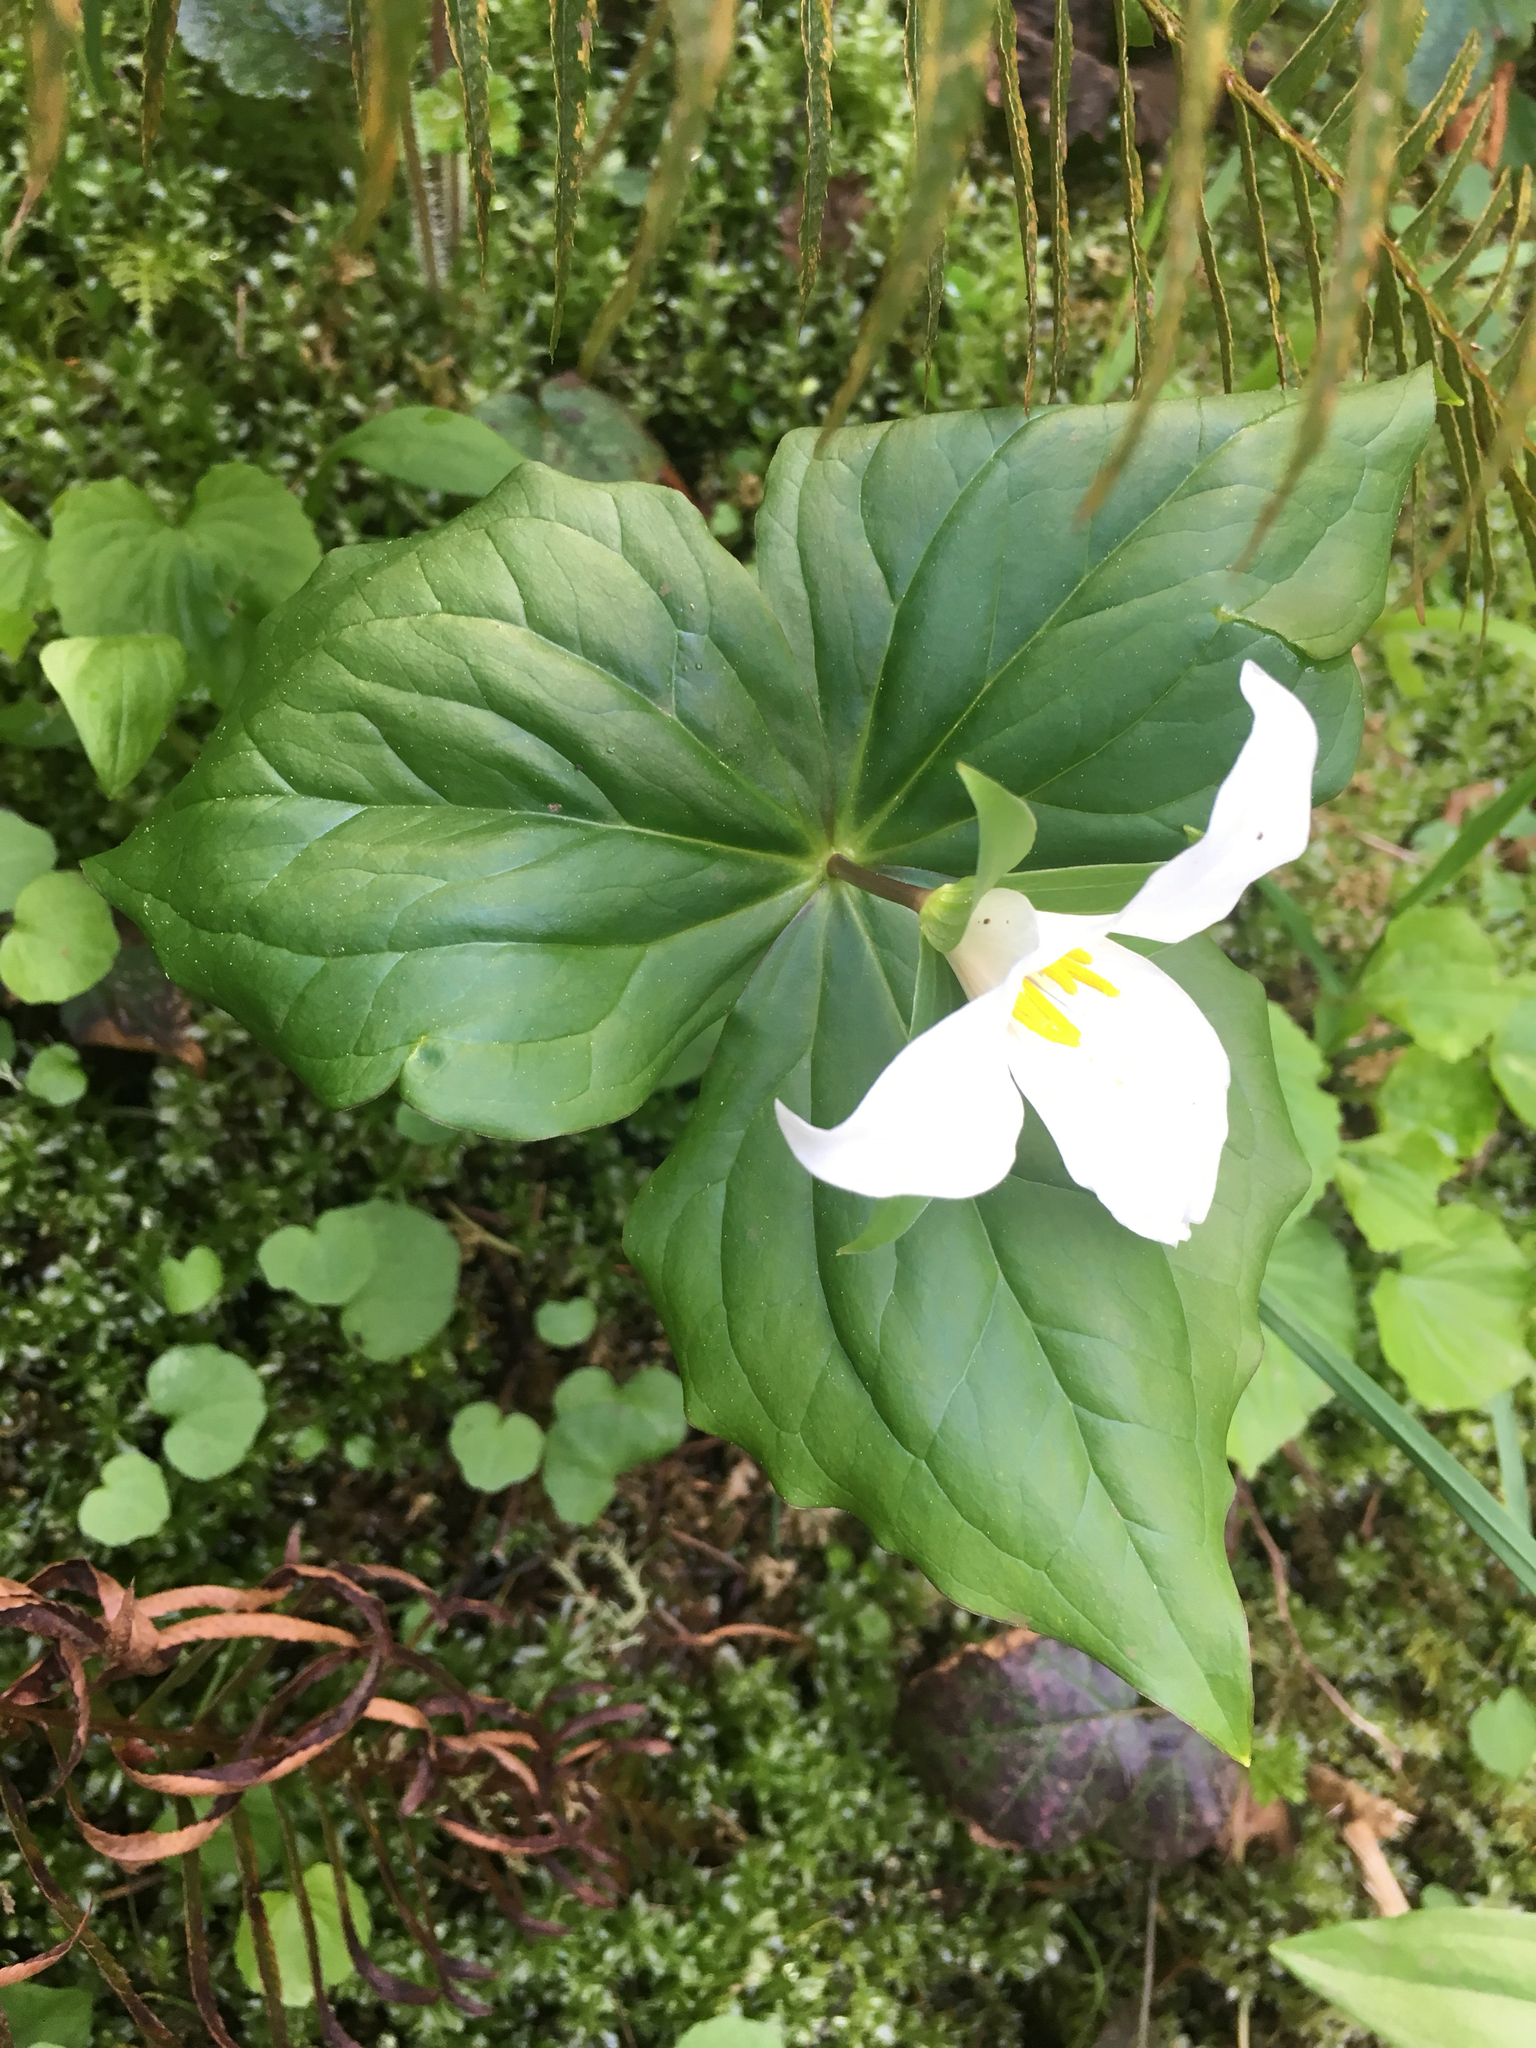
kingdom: Plantae
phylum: Tracheophyta
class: Liliopsida
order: Liliales
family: Melanthiaceae
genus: Trillium
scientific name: Trillium ovatum
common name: Pacific trillium
